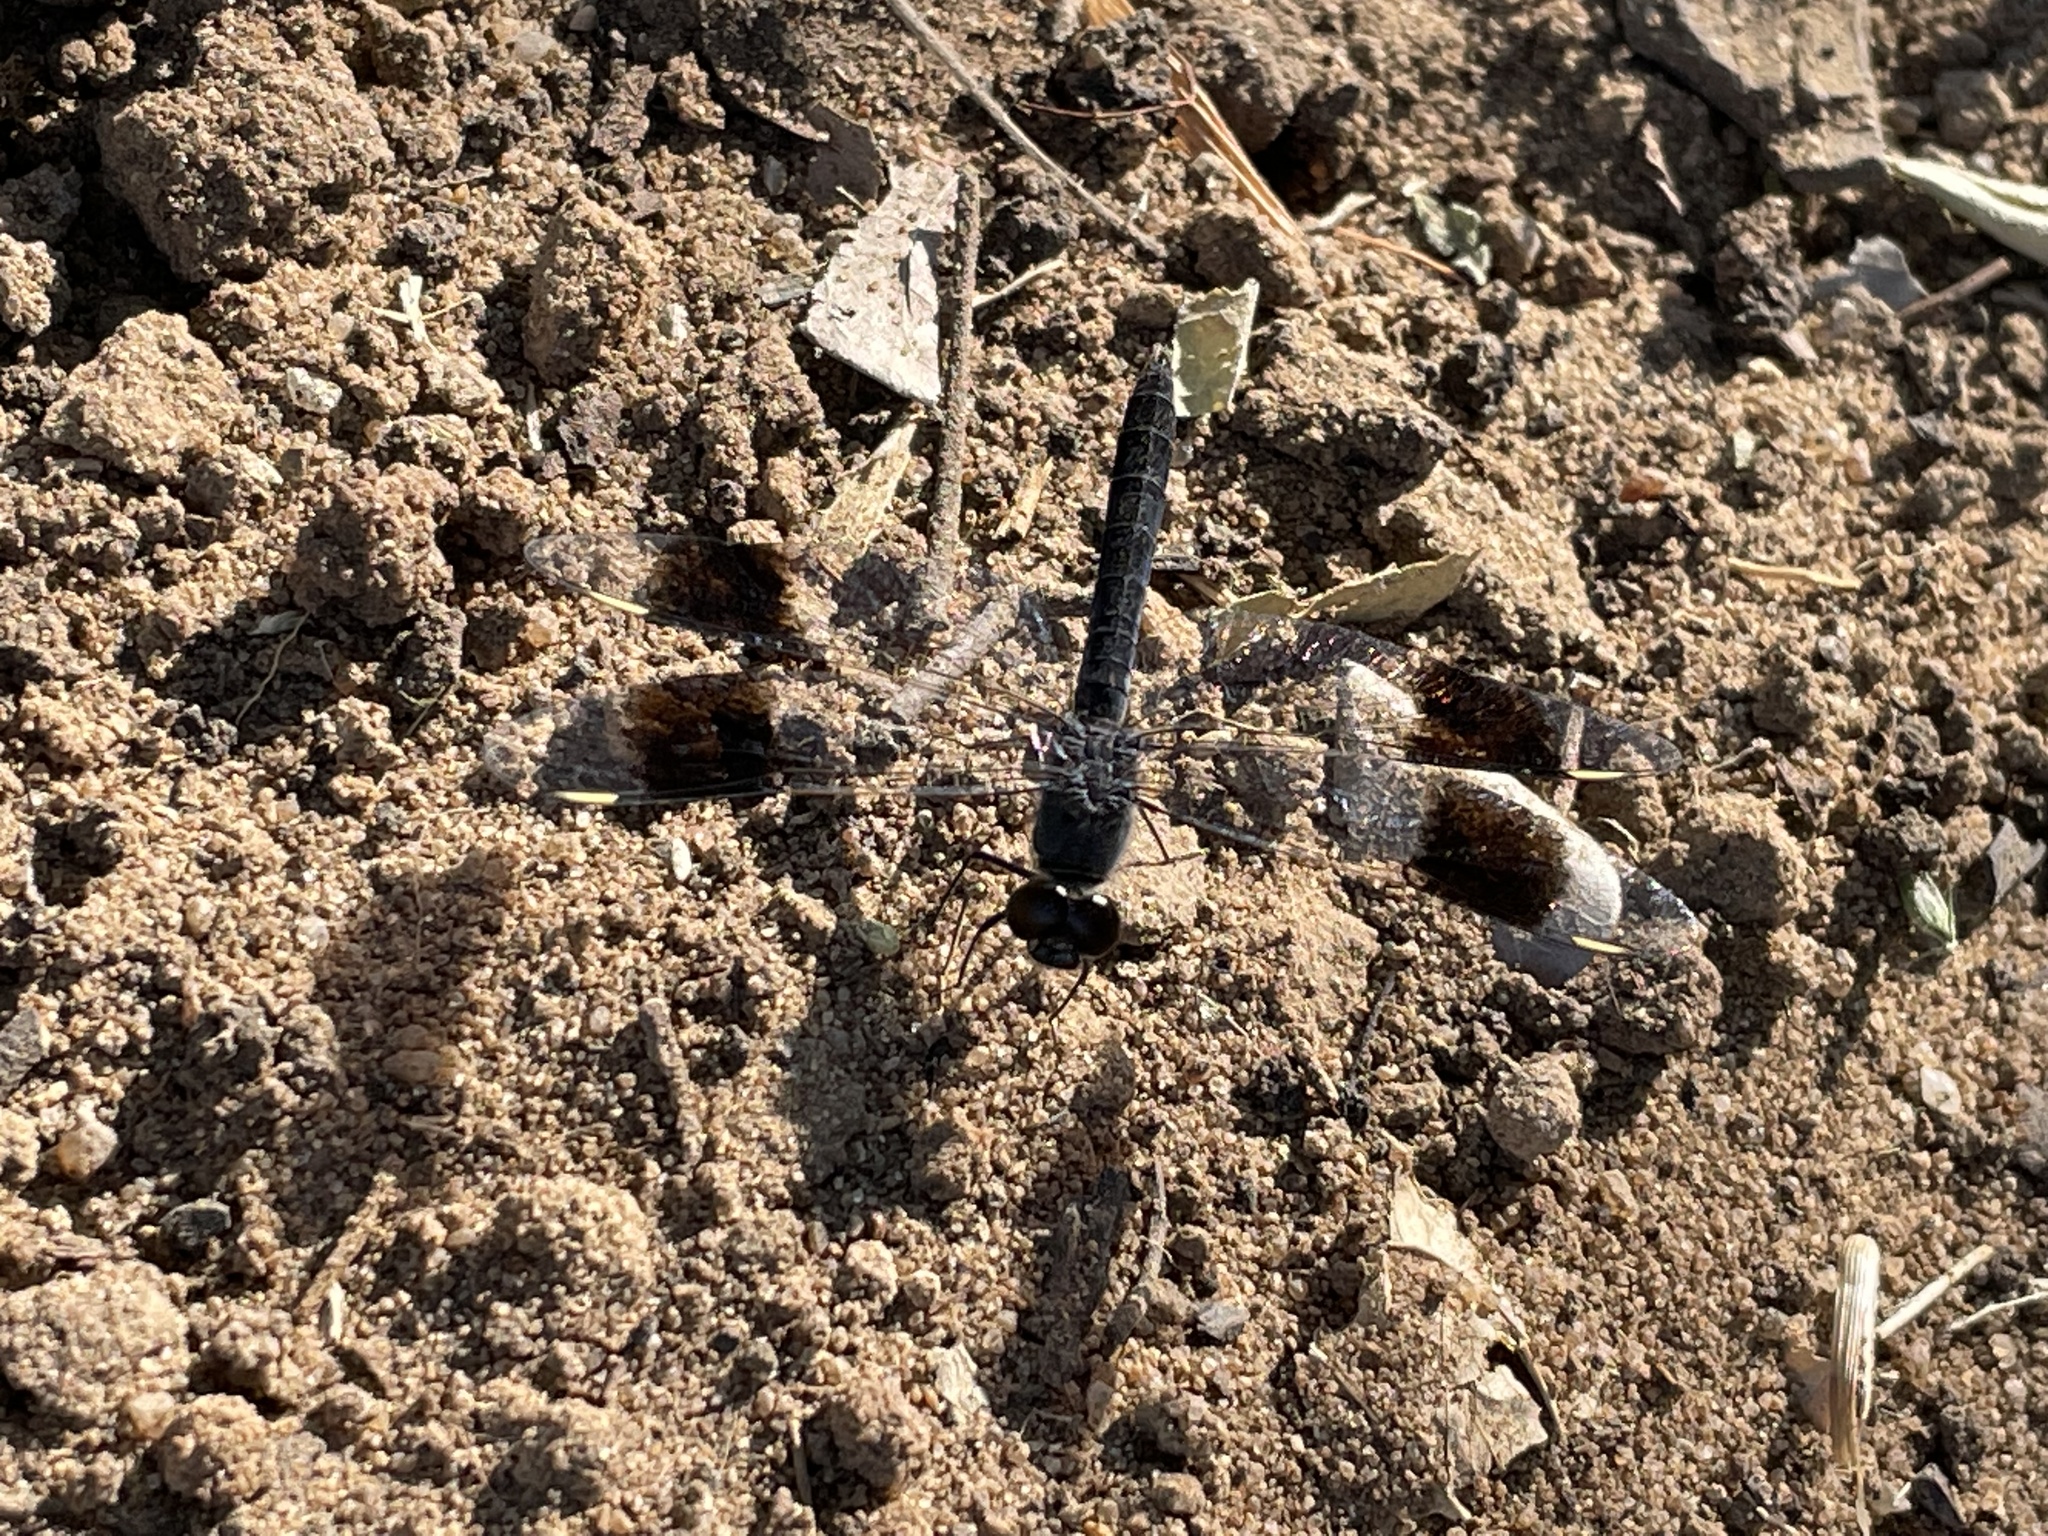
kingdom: Animalia
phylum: Arthropoda
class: Insecta
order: Odonata
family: Libellulidae
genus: Brachythemis
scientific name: Brachythemis leucosticta
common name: Banded groundling
